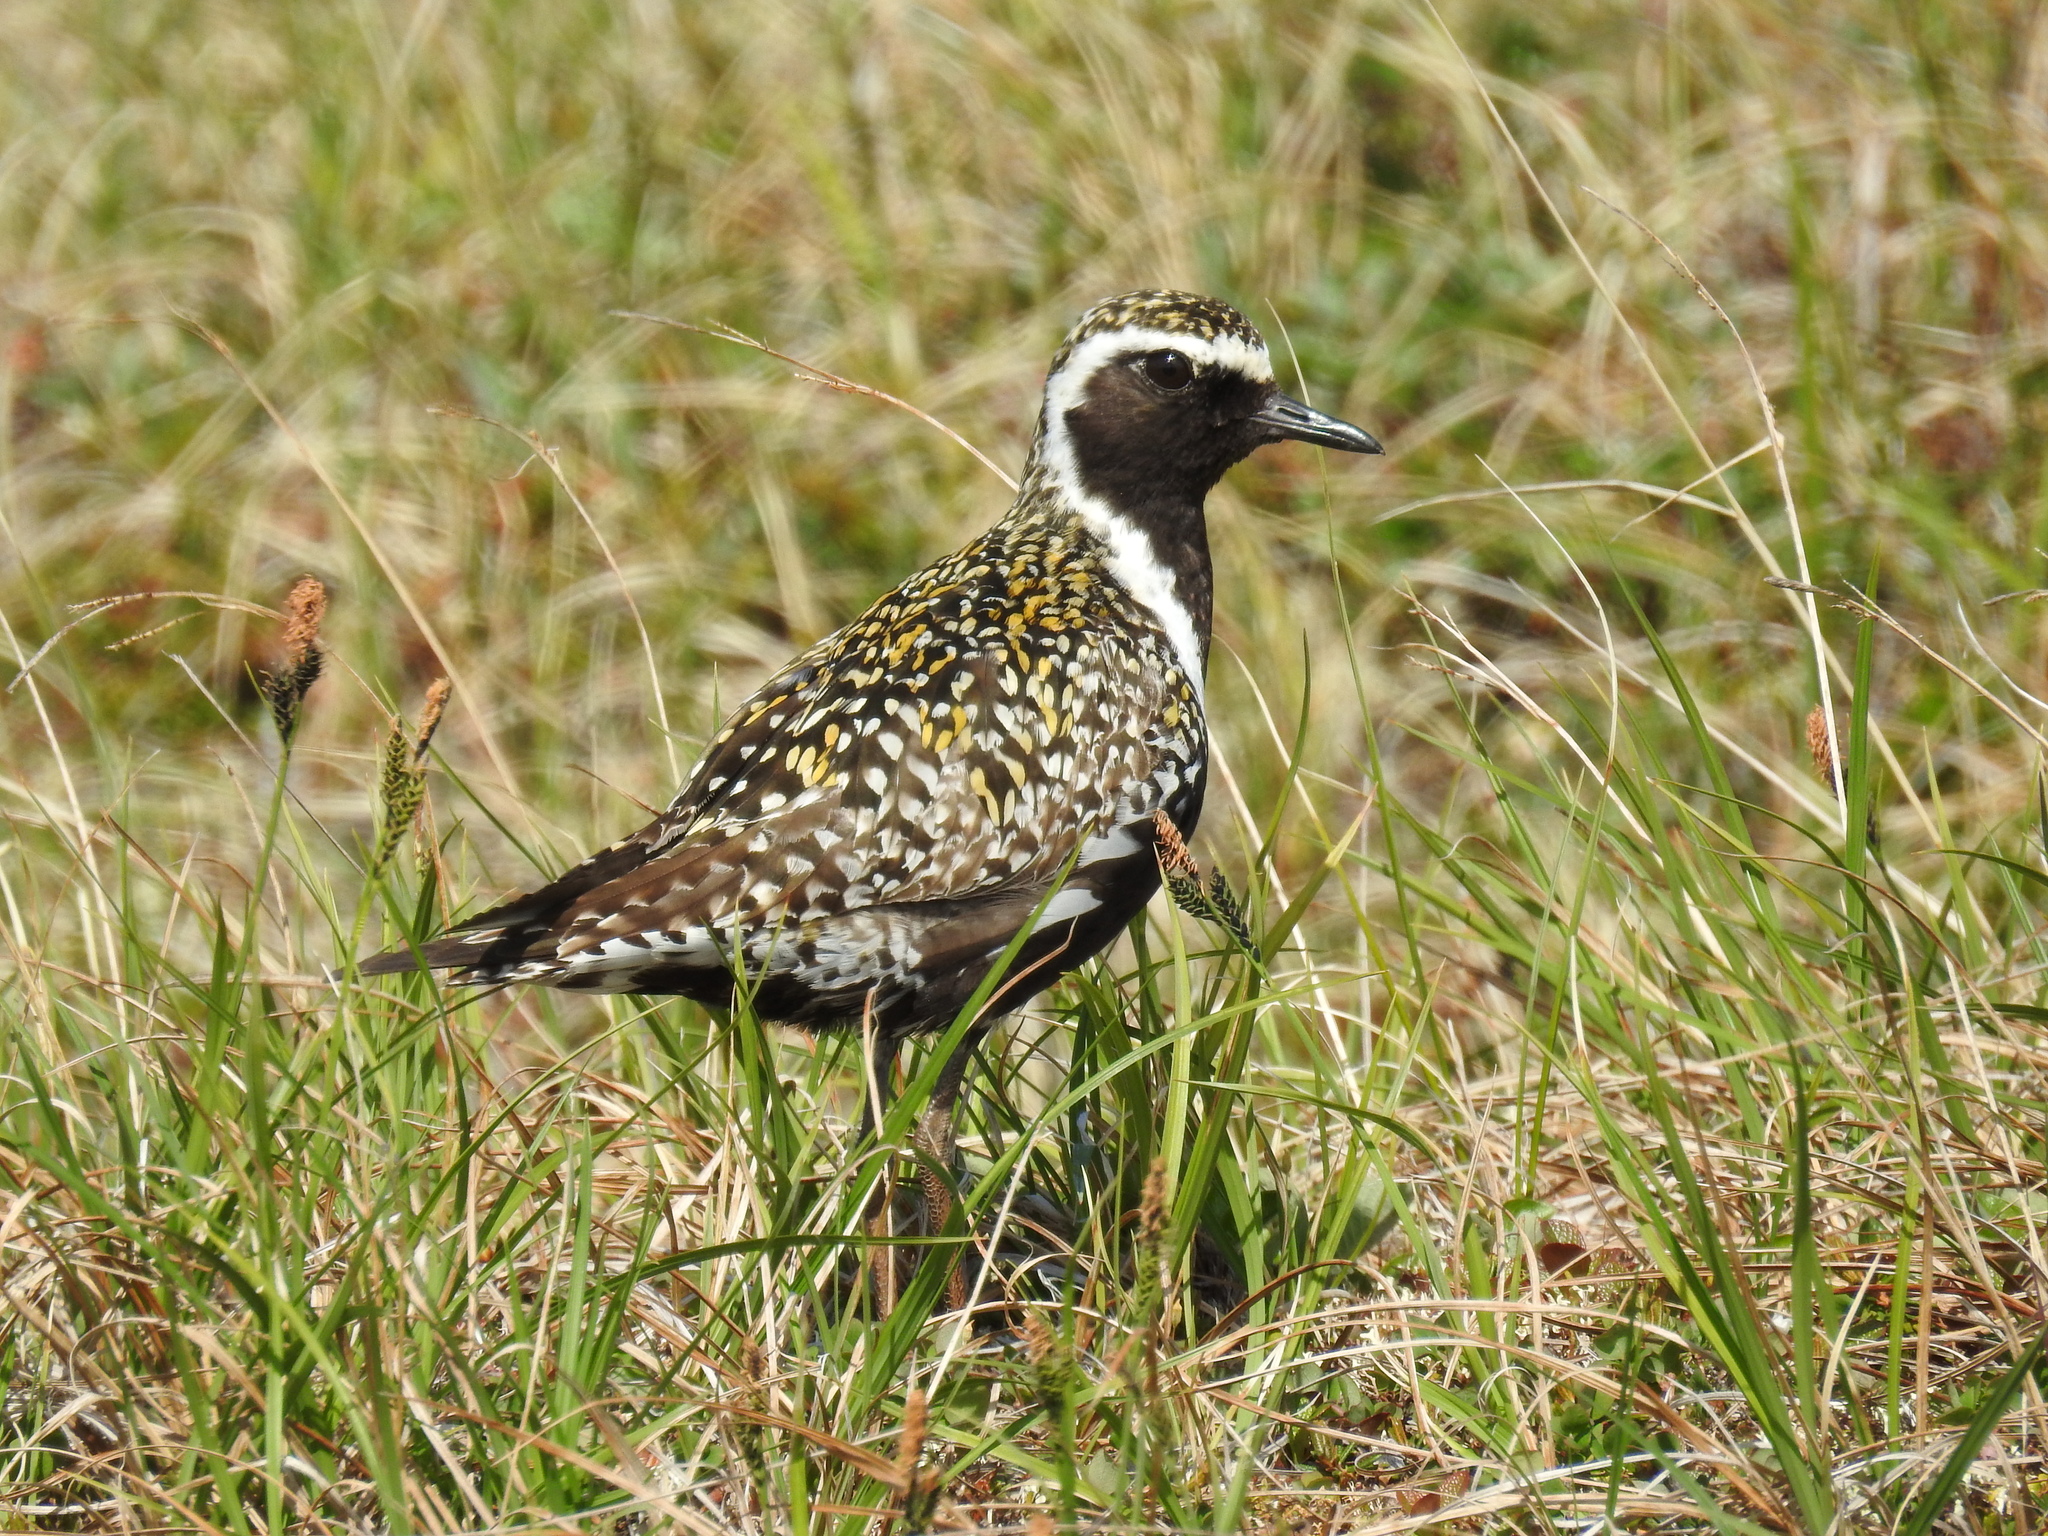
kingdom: Animalia
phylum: Chordata
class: Aves
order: Charadriiformes
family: Charadriidae
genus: Pluvialis
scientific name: Pluvialis fulva
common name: Pacific golden plover
